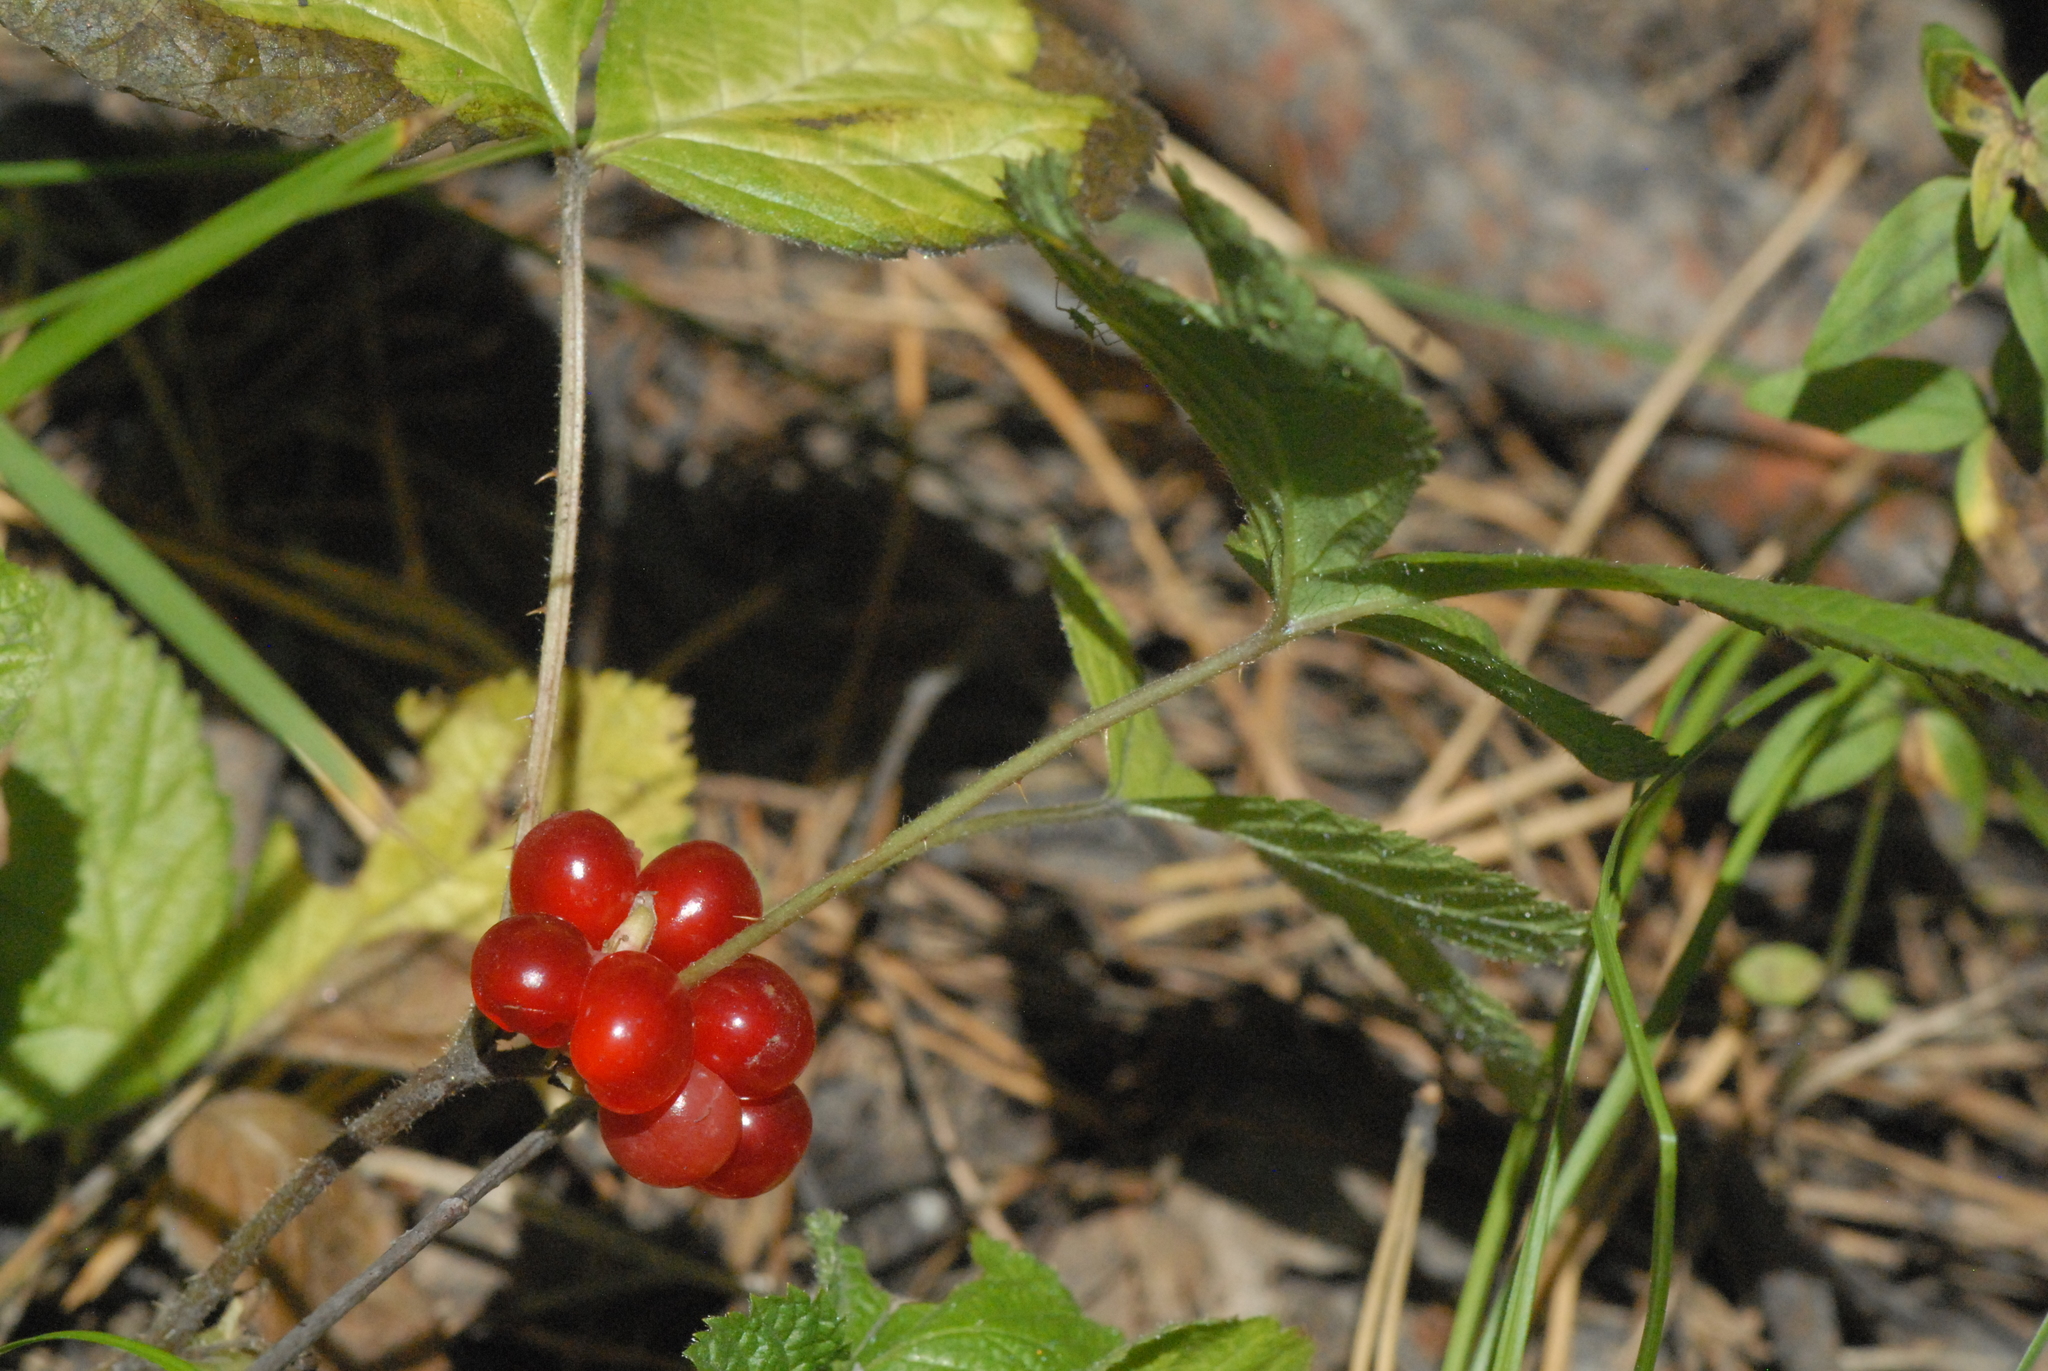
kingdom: Plantae
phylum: Tracheophyta
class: Magnoliopsida
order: Rosales
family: Rosaceae
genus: Rubus
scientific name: Rubus saxatilis
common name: Stone bramble
